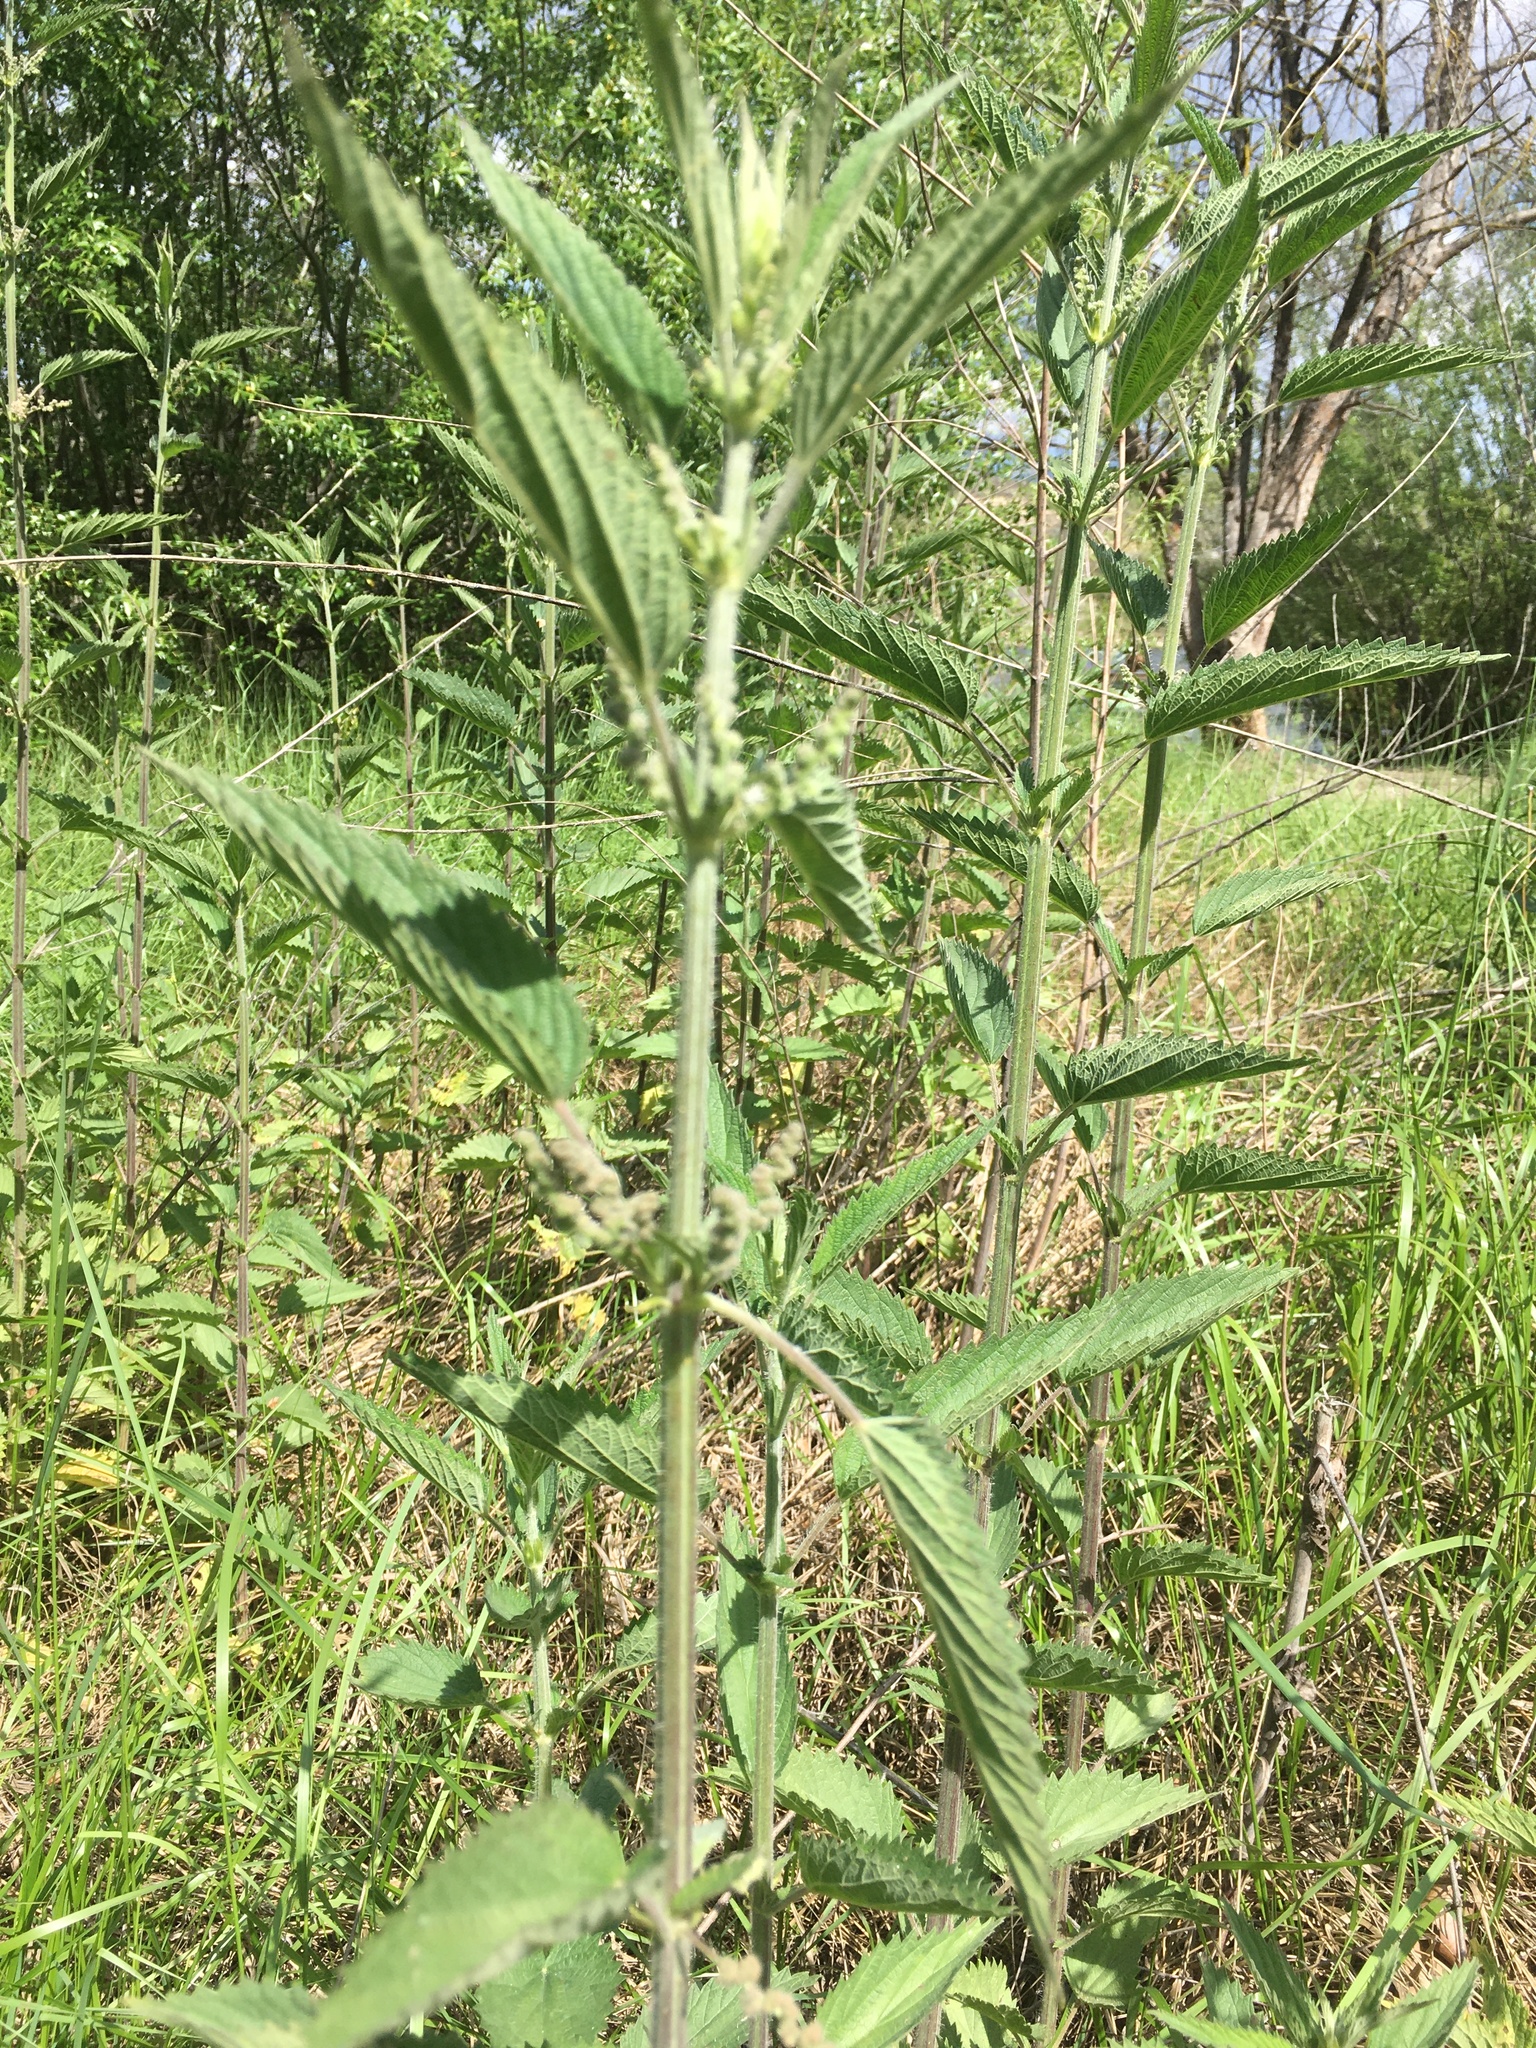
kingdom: Plantae
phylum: Tracheophyta
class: Magnoliopsida
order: Rosales
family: Urticaceae
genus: Urtica
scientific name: Urtica dioica
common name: Common nettle
